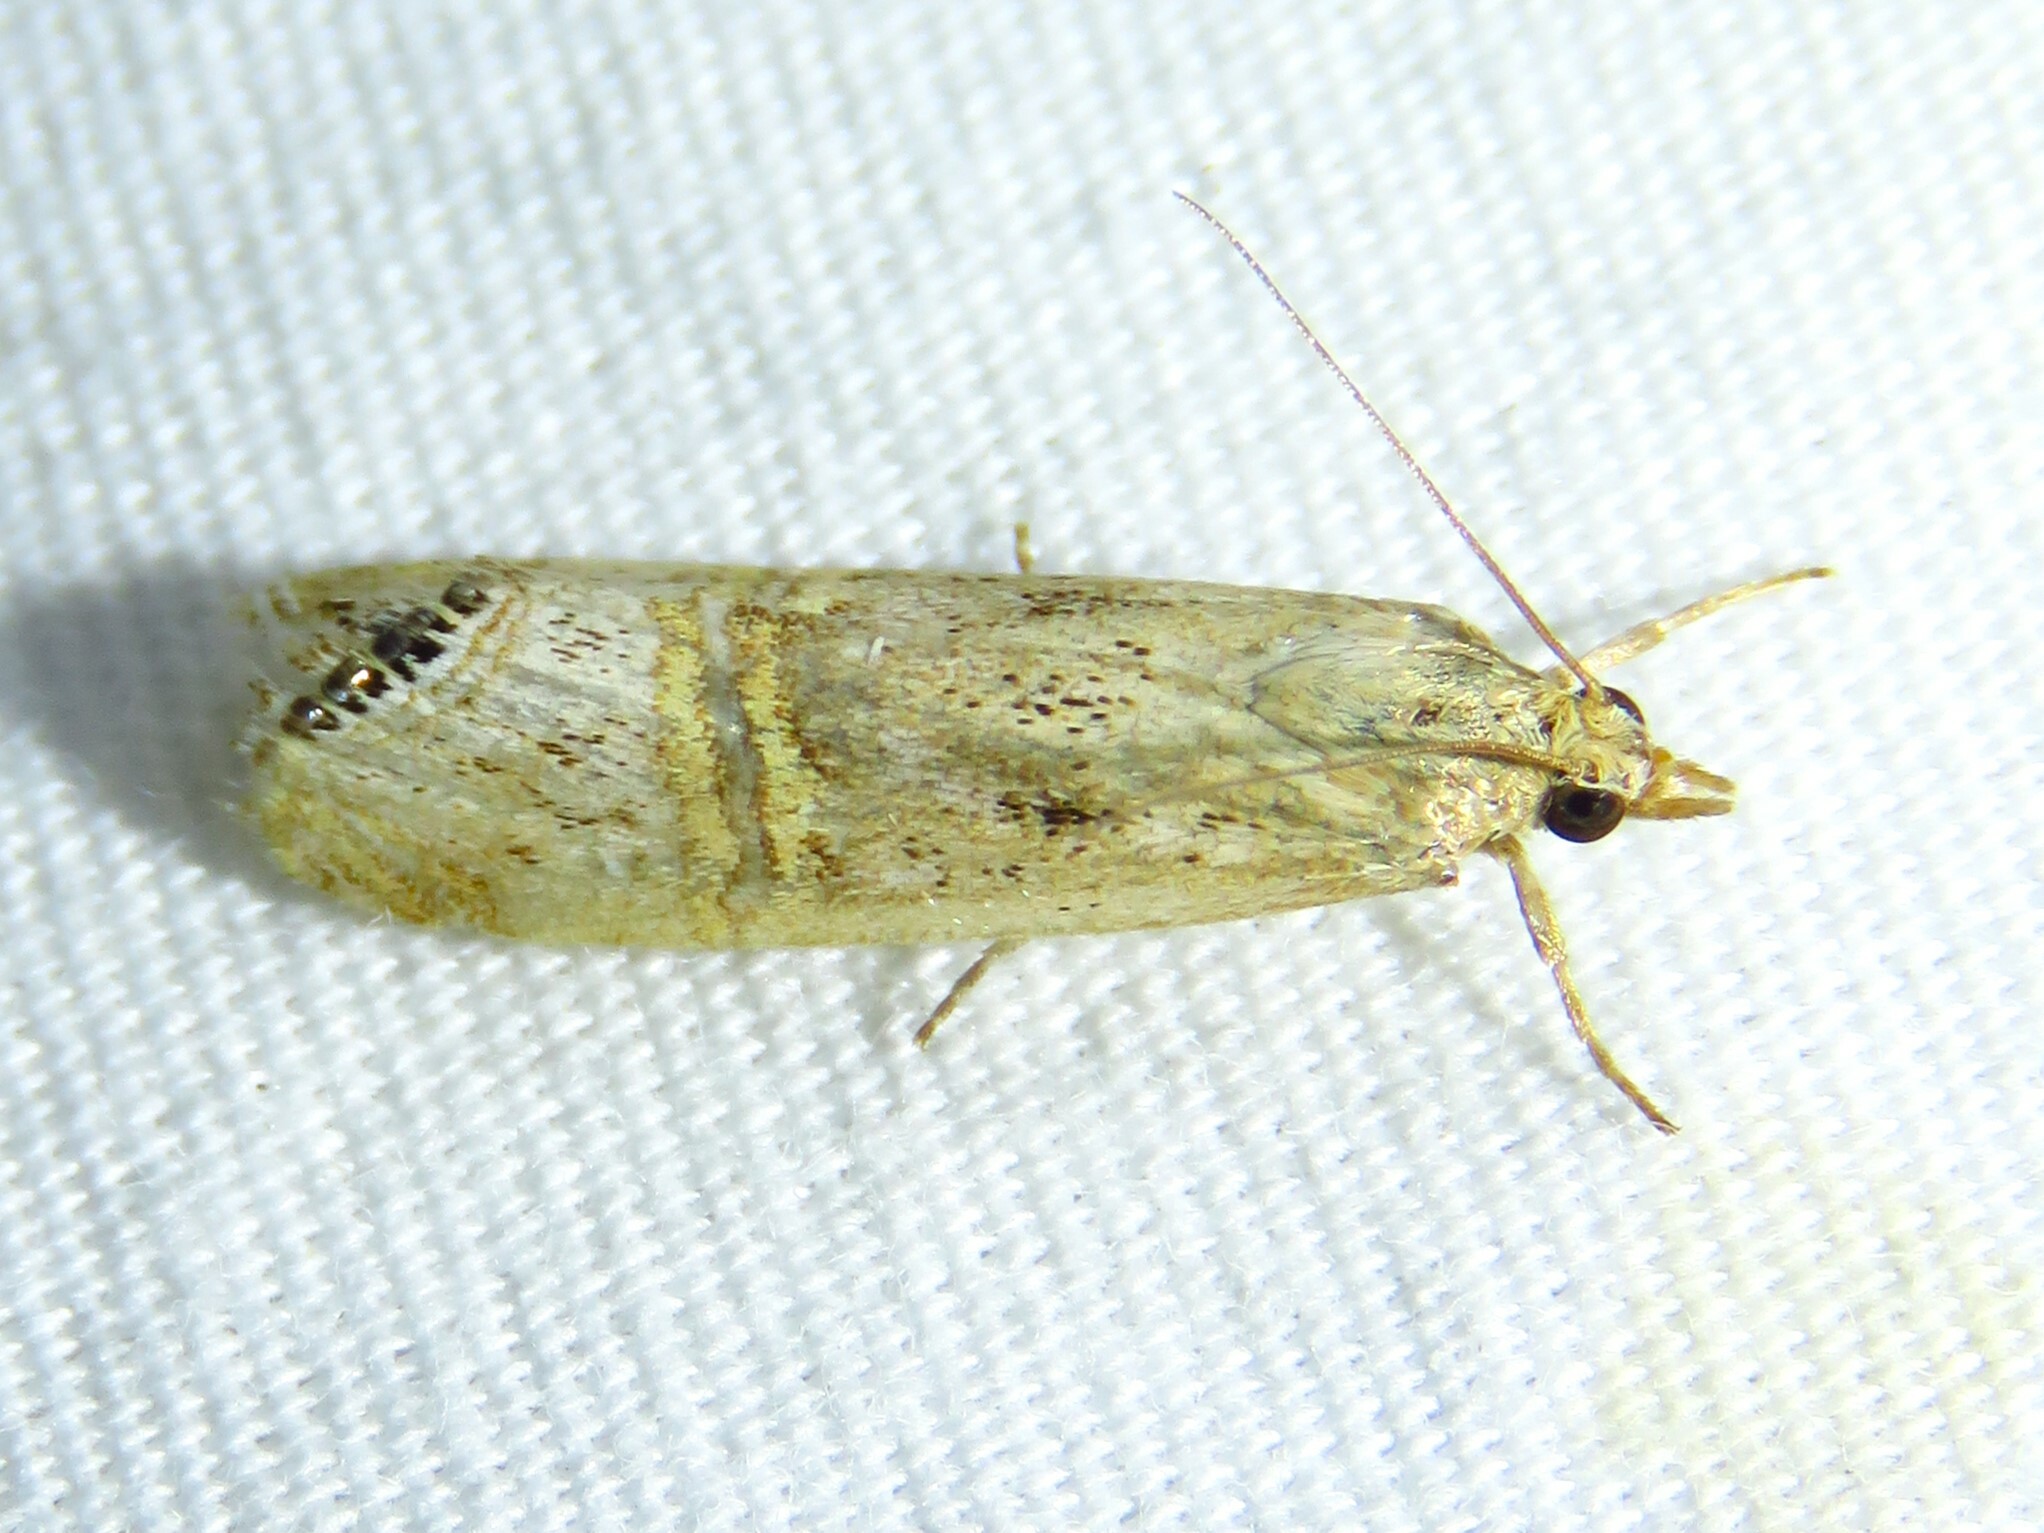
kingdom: Animalia
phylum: Arthropoda
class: Insecta
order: Lepidoptera
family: Crambidae
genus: Euchromius
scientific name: Euchromius ocellea
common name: Necklace veneer moth
